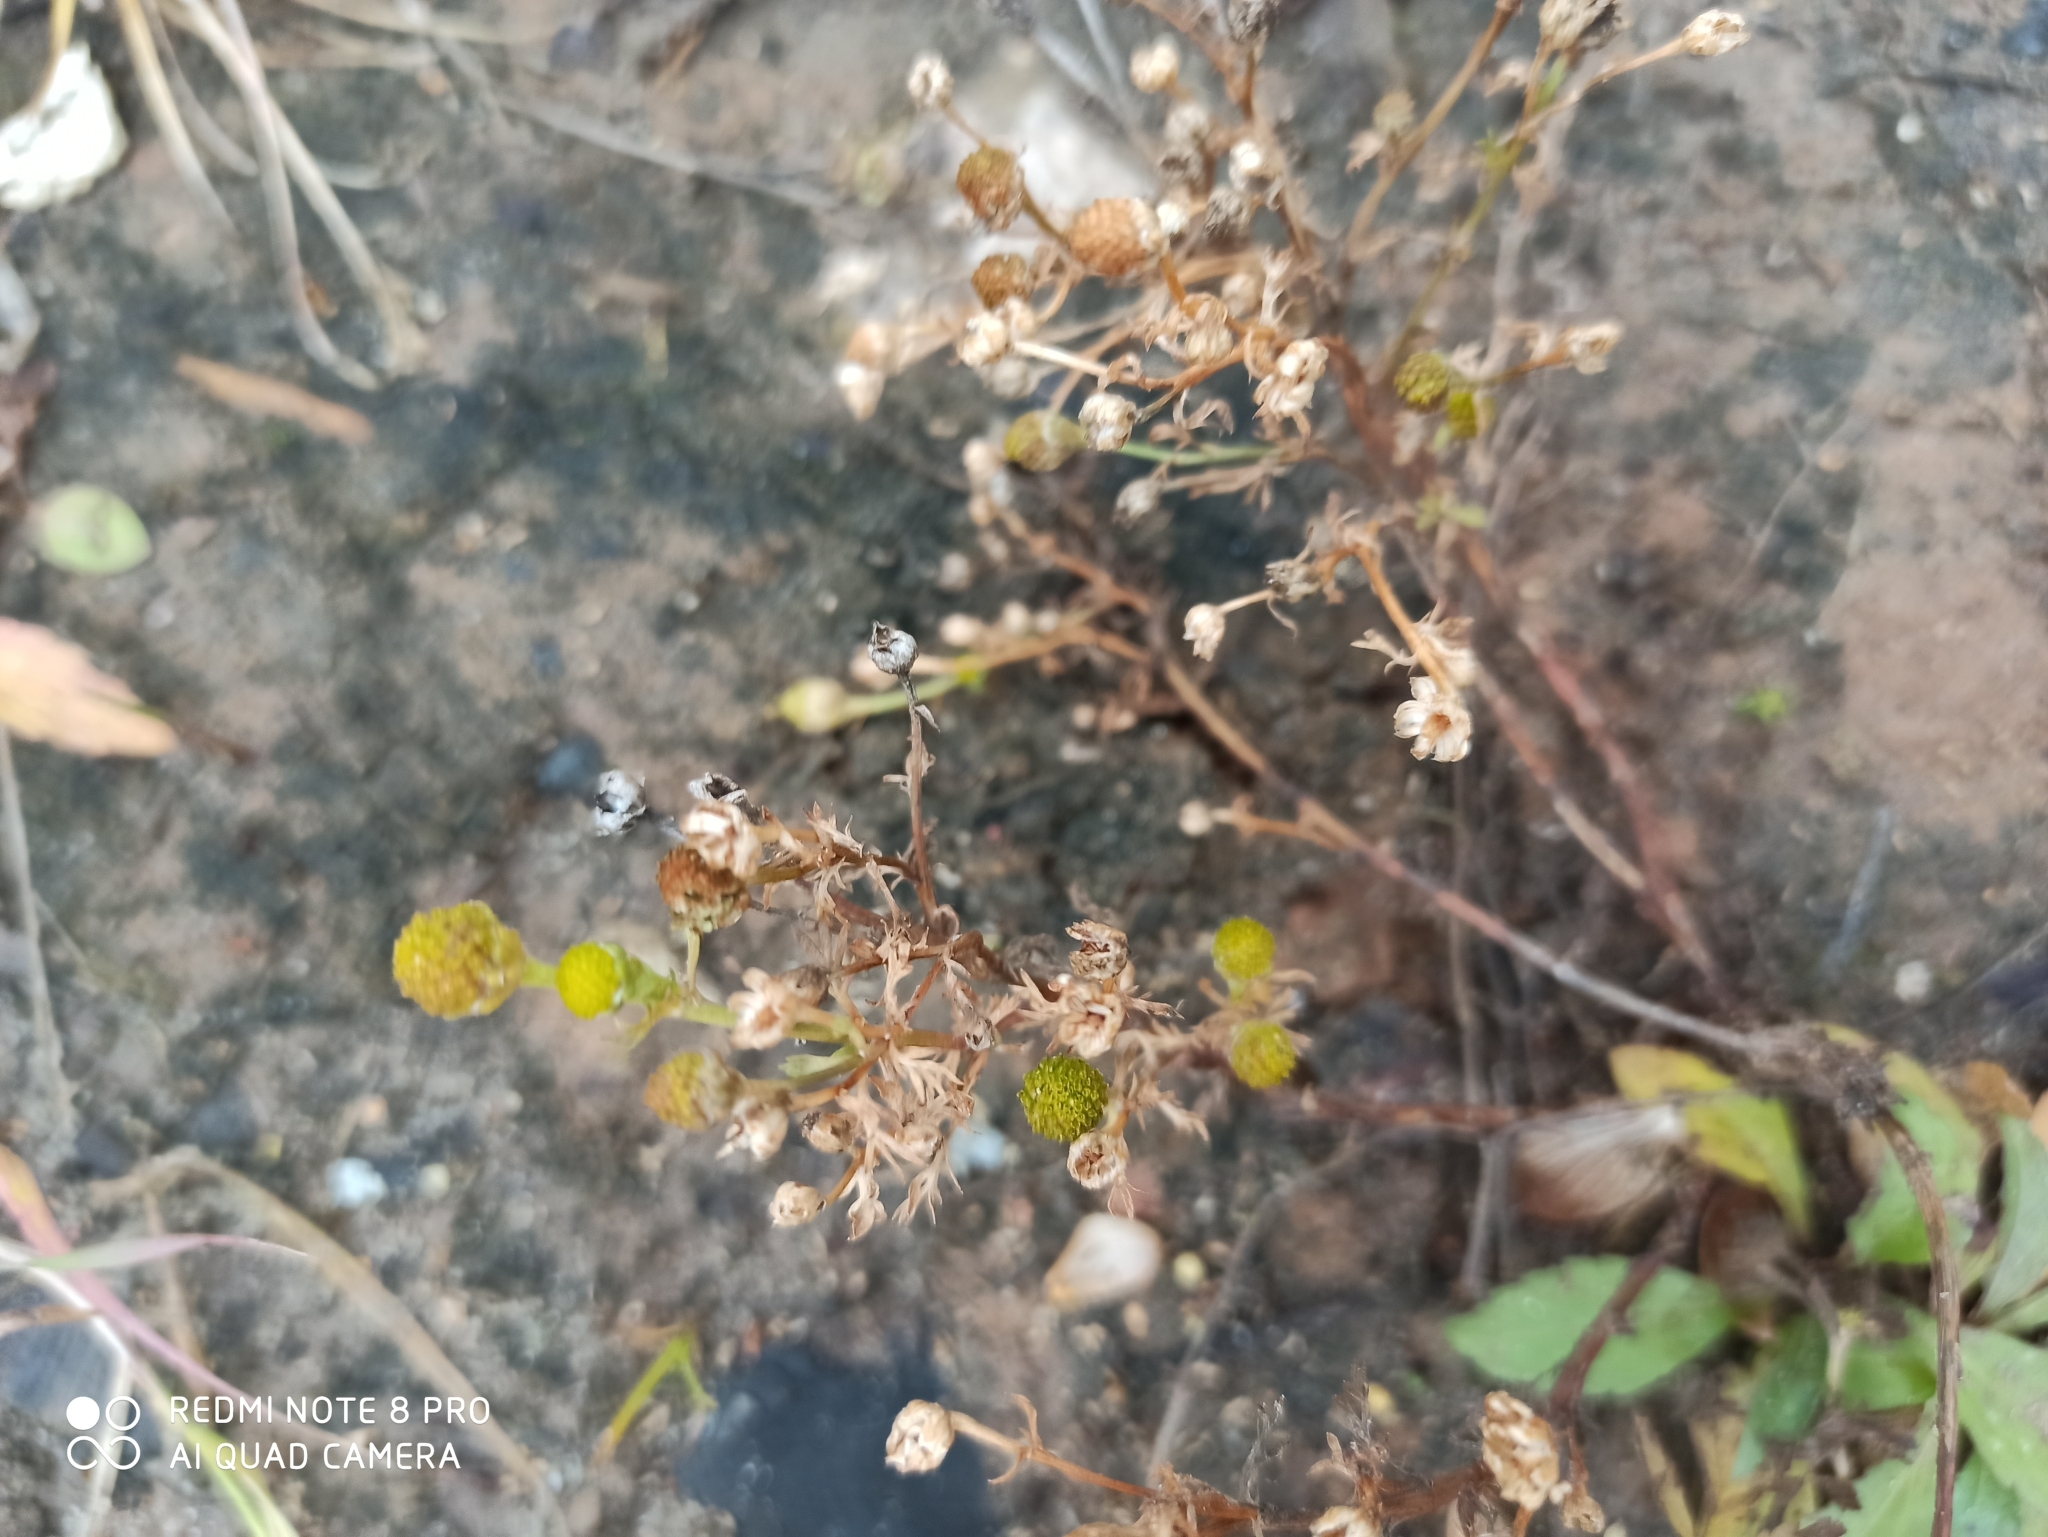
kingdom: Plantae
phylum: Tracheophyta
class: Magnoliopsida
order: Asterales
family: Asteraceae
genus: Matricaria
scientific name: Matricaria discoidea
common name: Disc mayweed
